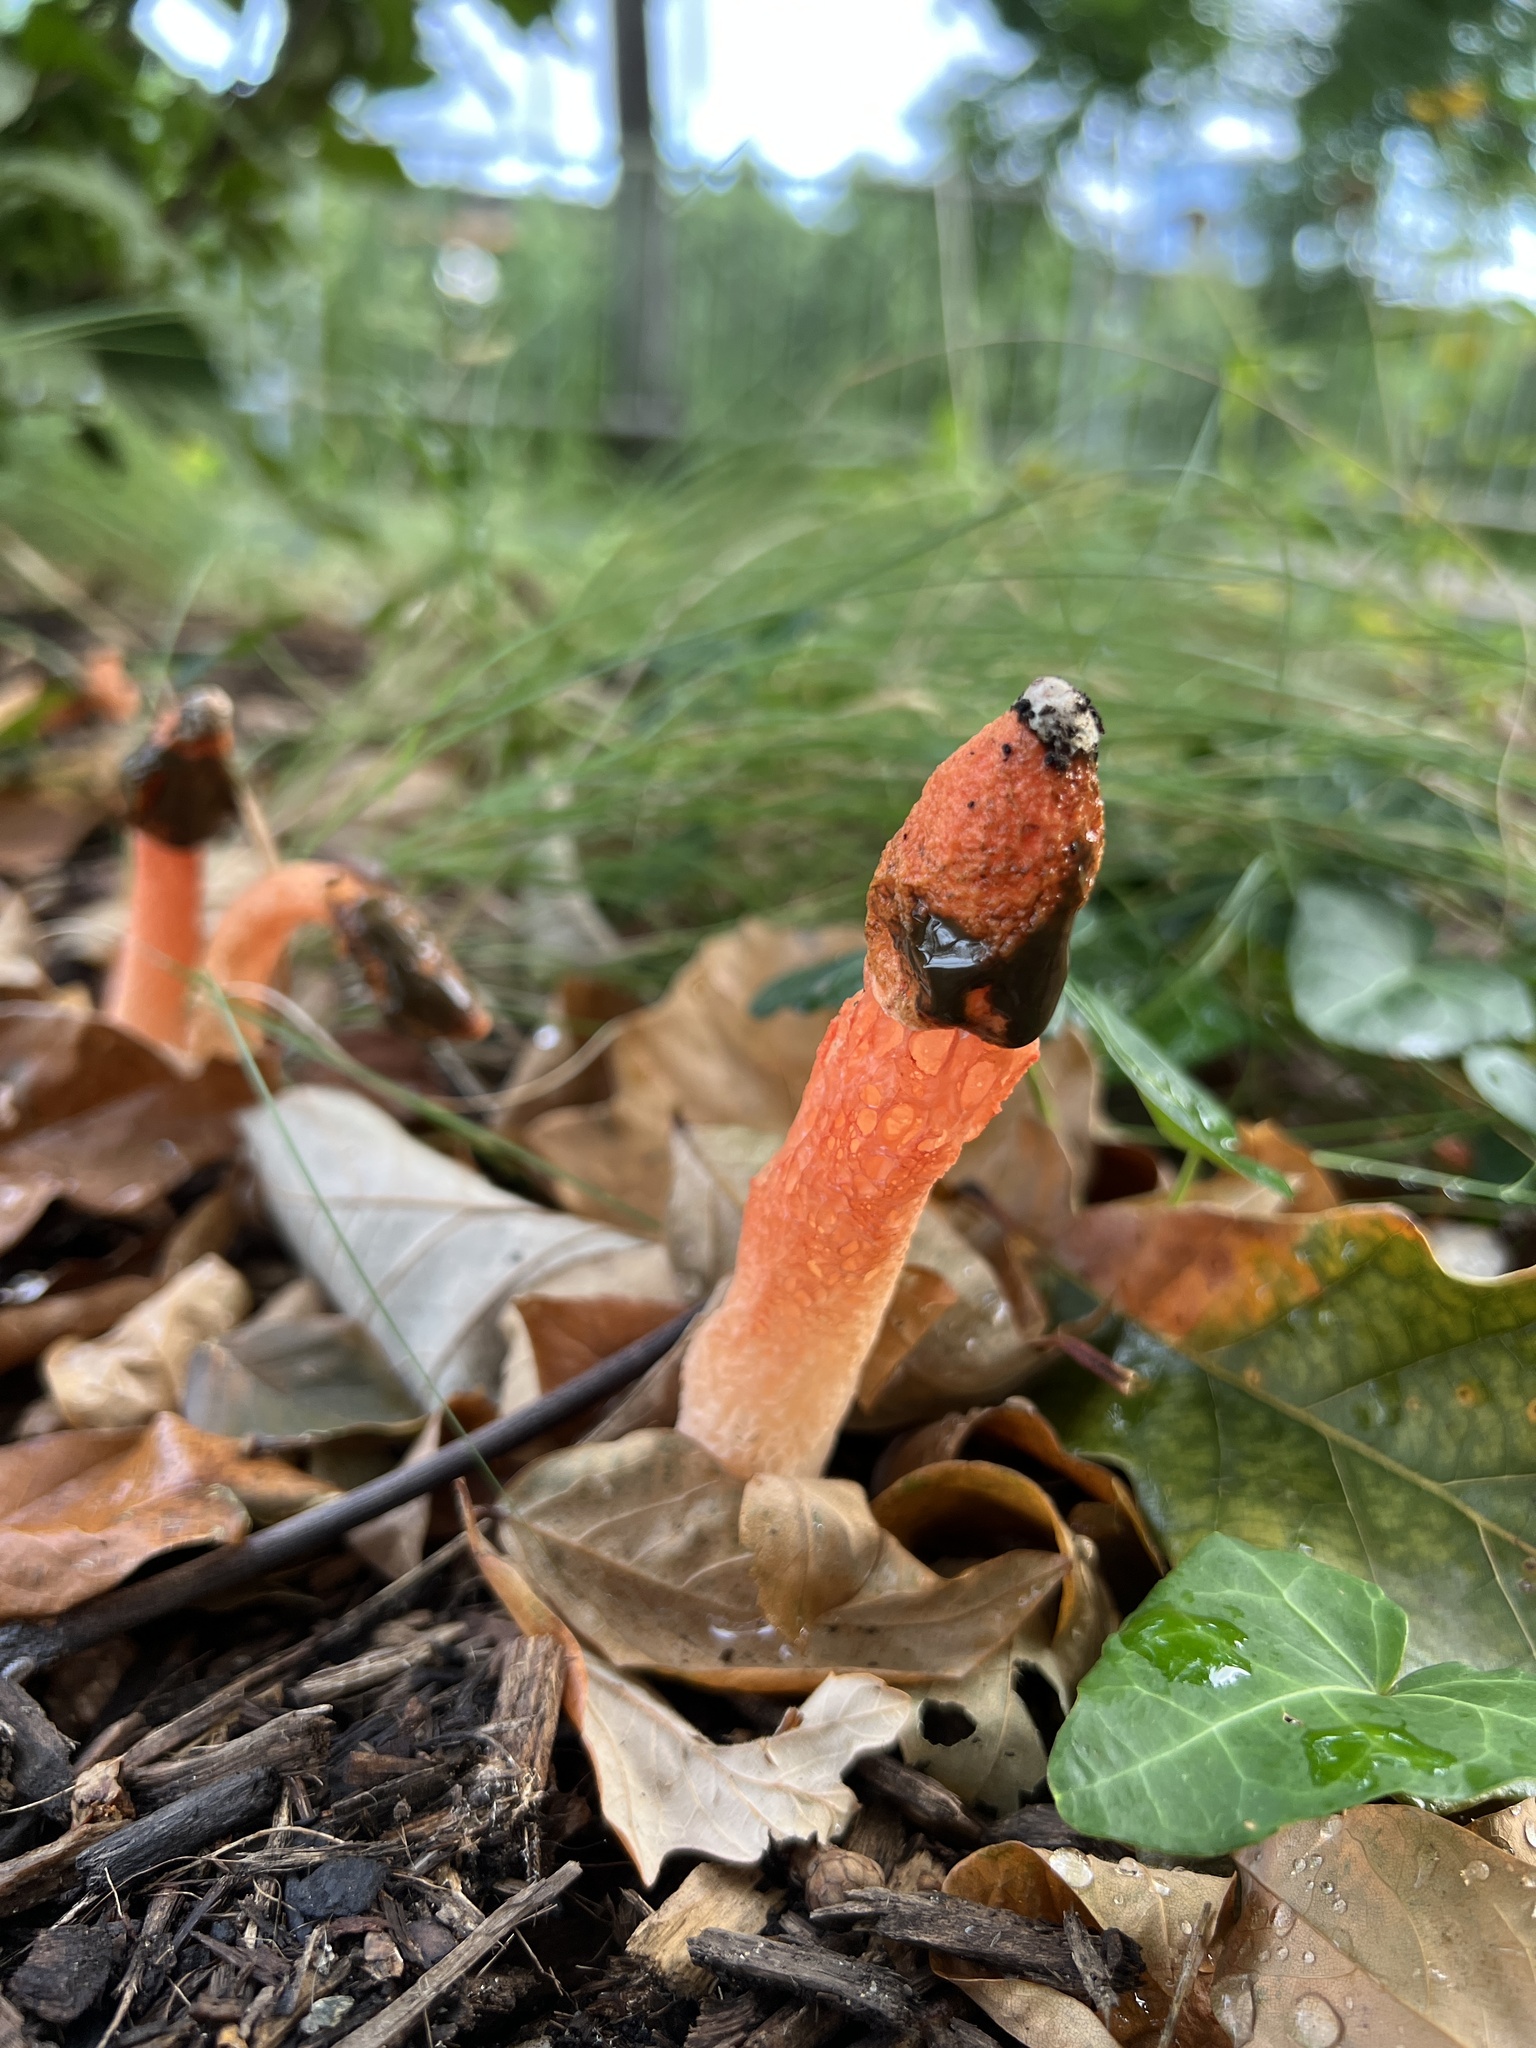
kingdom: Fungi
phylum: Basidiomycota
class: Agaricomycetes
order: Phallales
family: Phallaceae
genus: Phallus
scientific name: Phallus rugulosus
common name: Wrinkly stinkhorn
